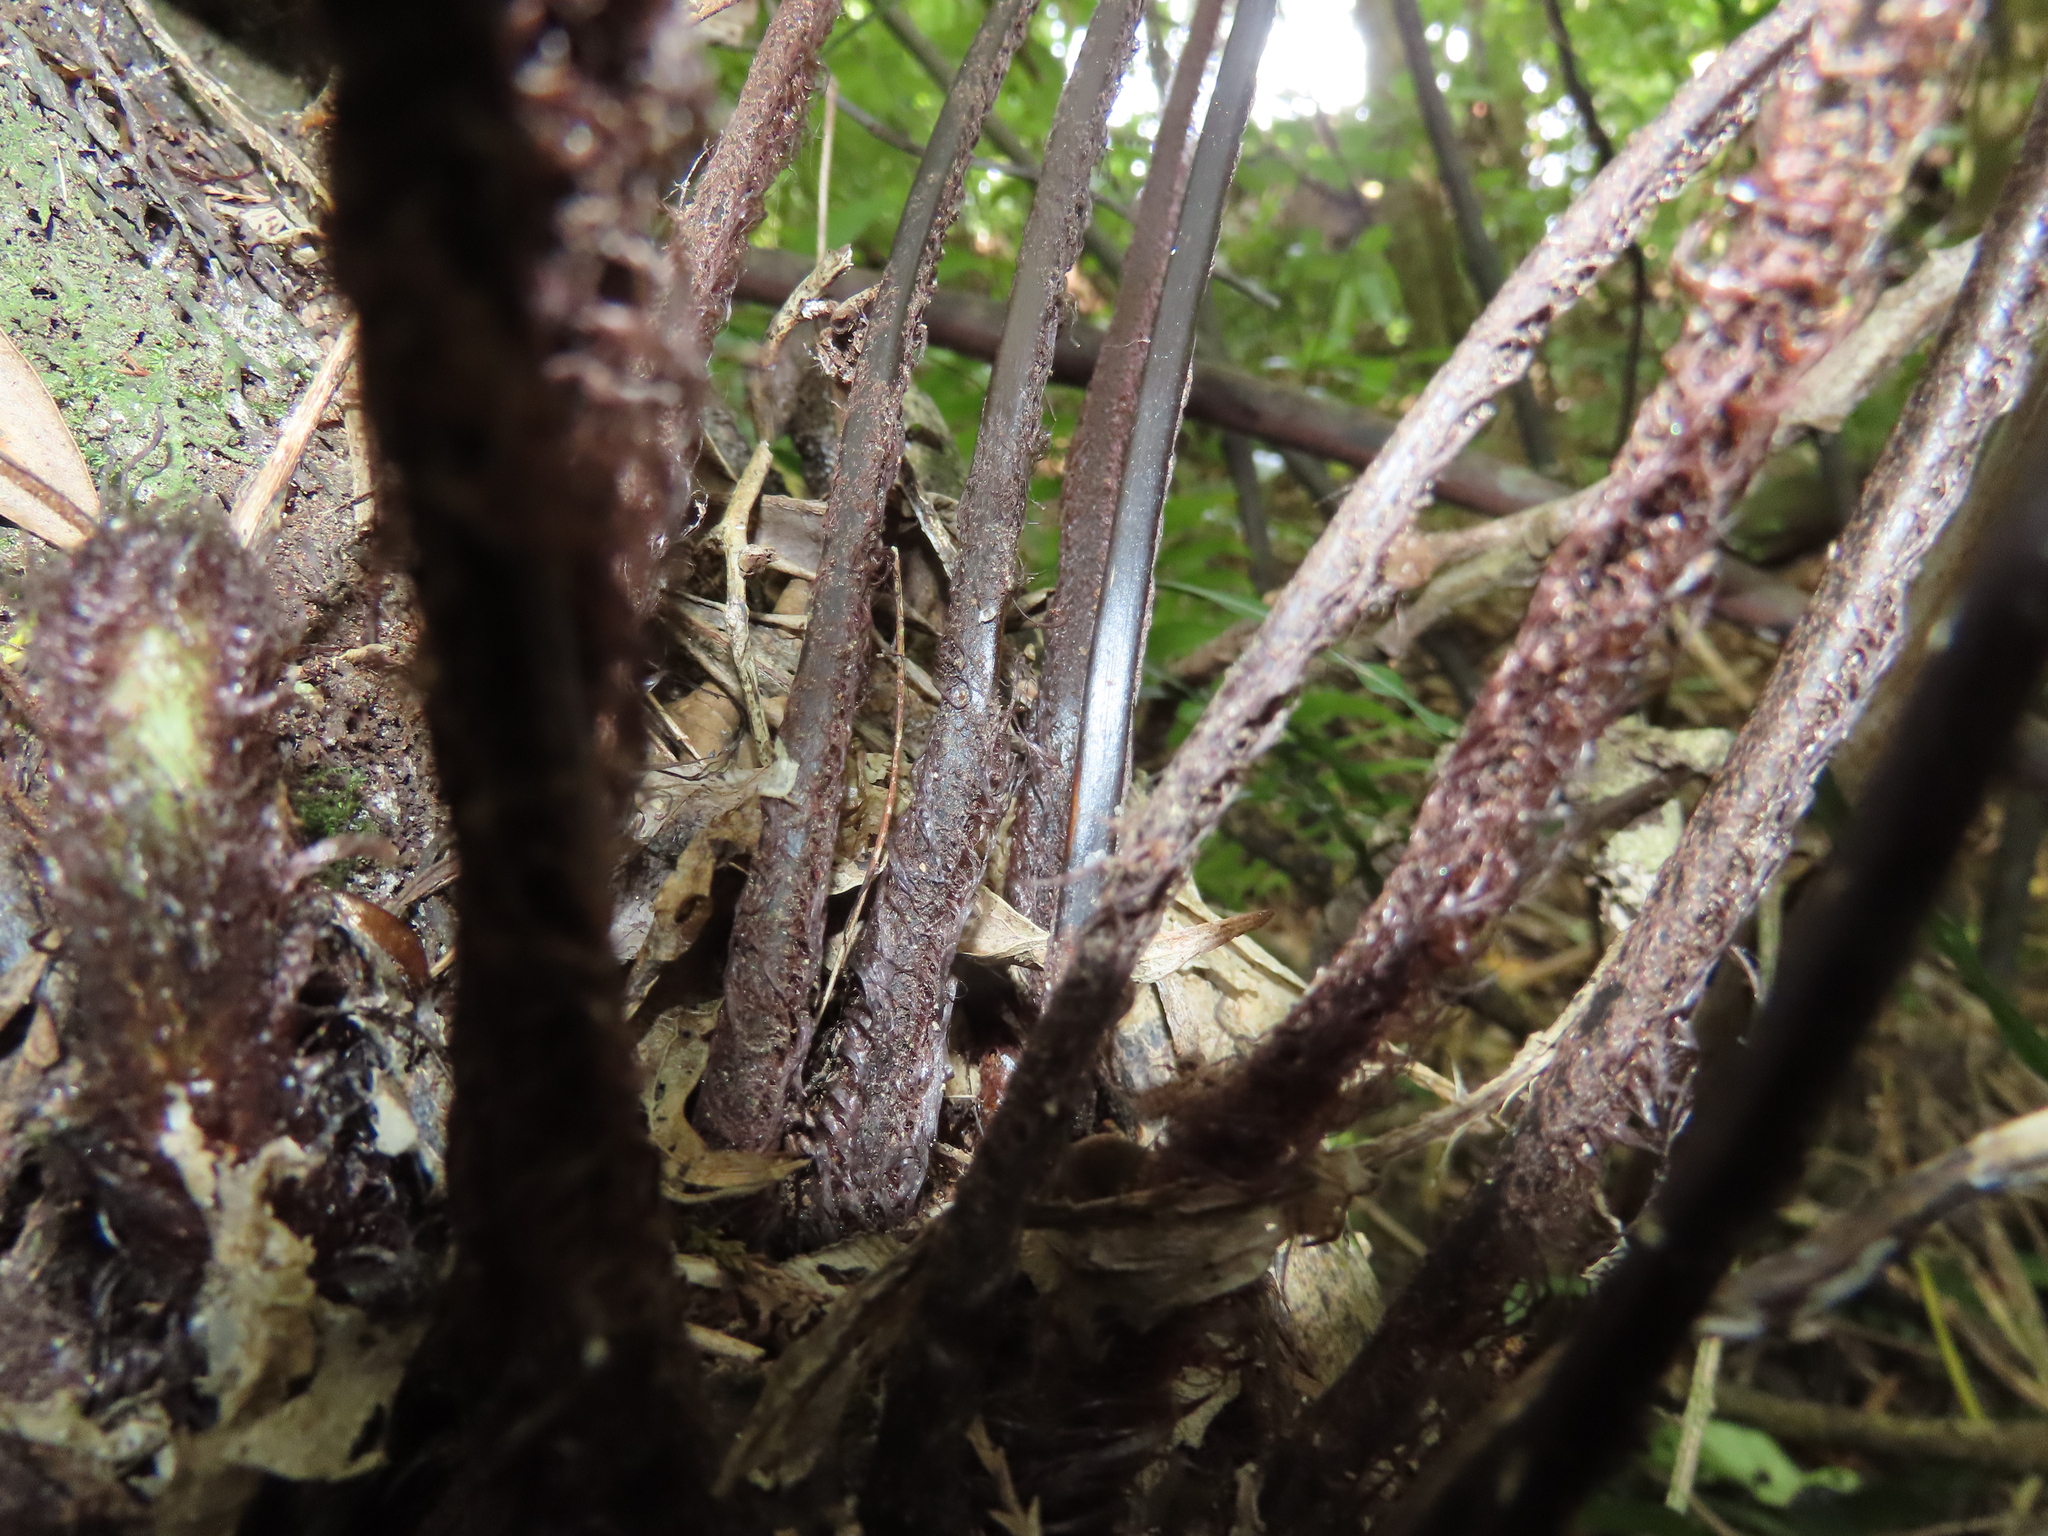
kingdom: Plantae
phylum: Tracheophyta
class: Polypodiopsida
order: Polypodiales
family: Aspleniaceae
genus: Asplenium
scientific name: Asplenium polyodon
